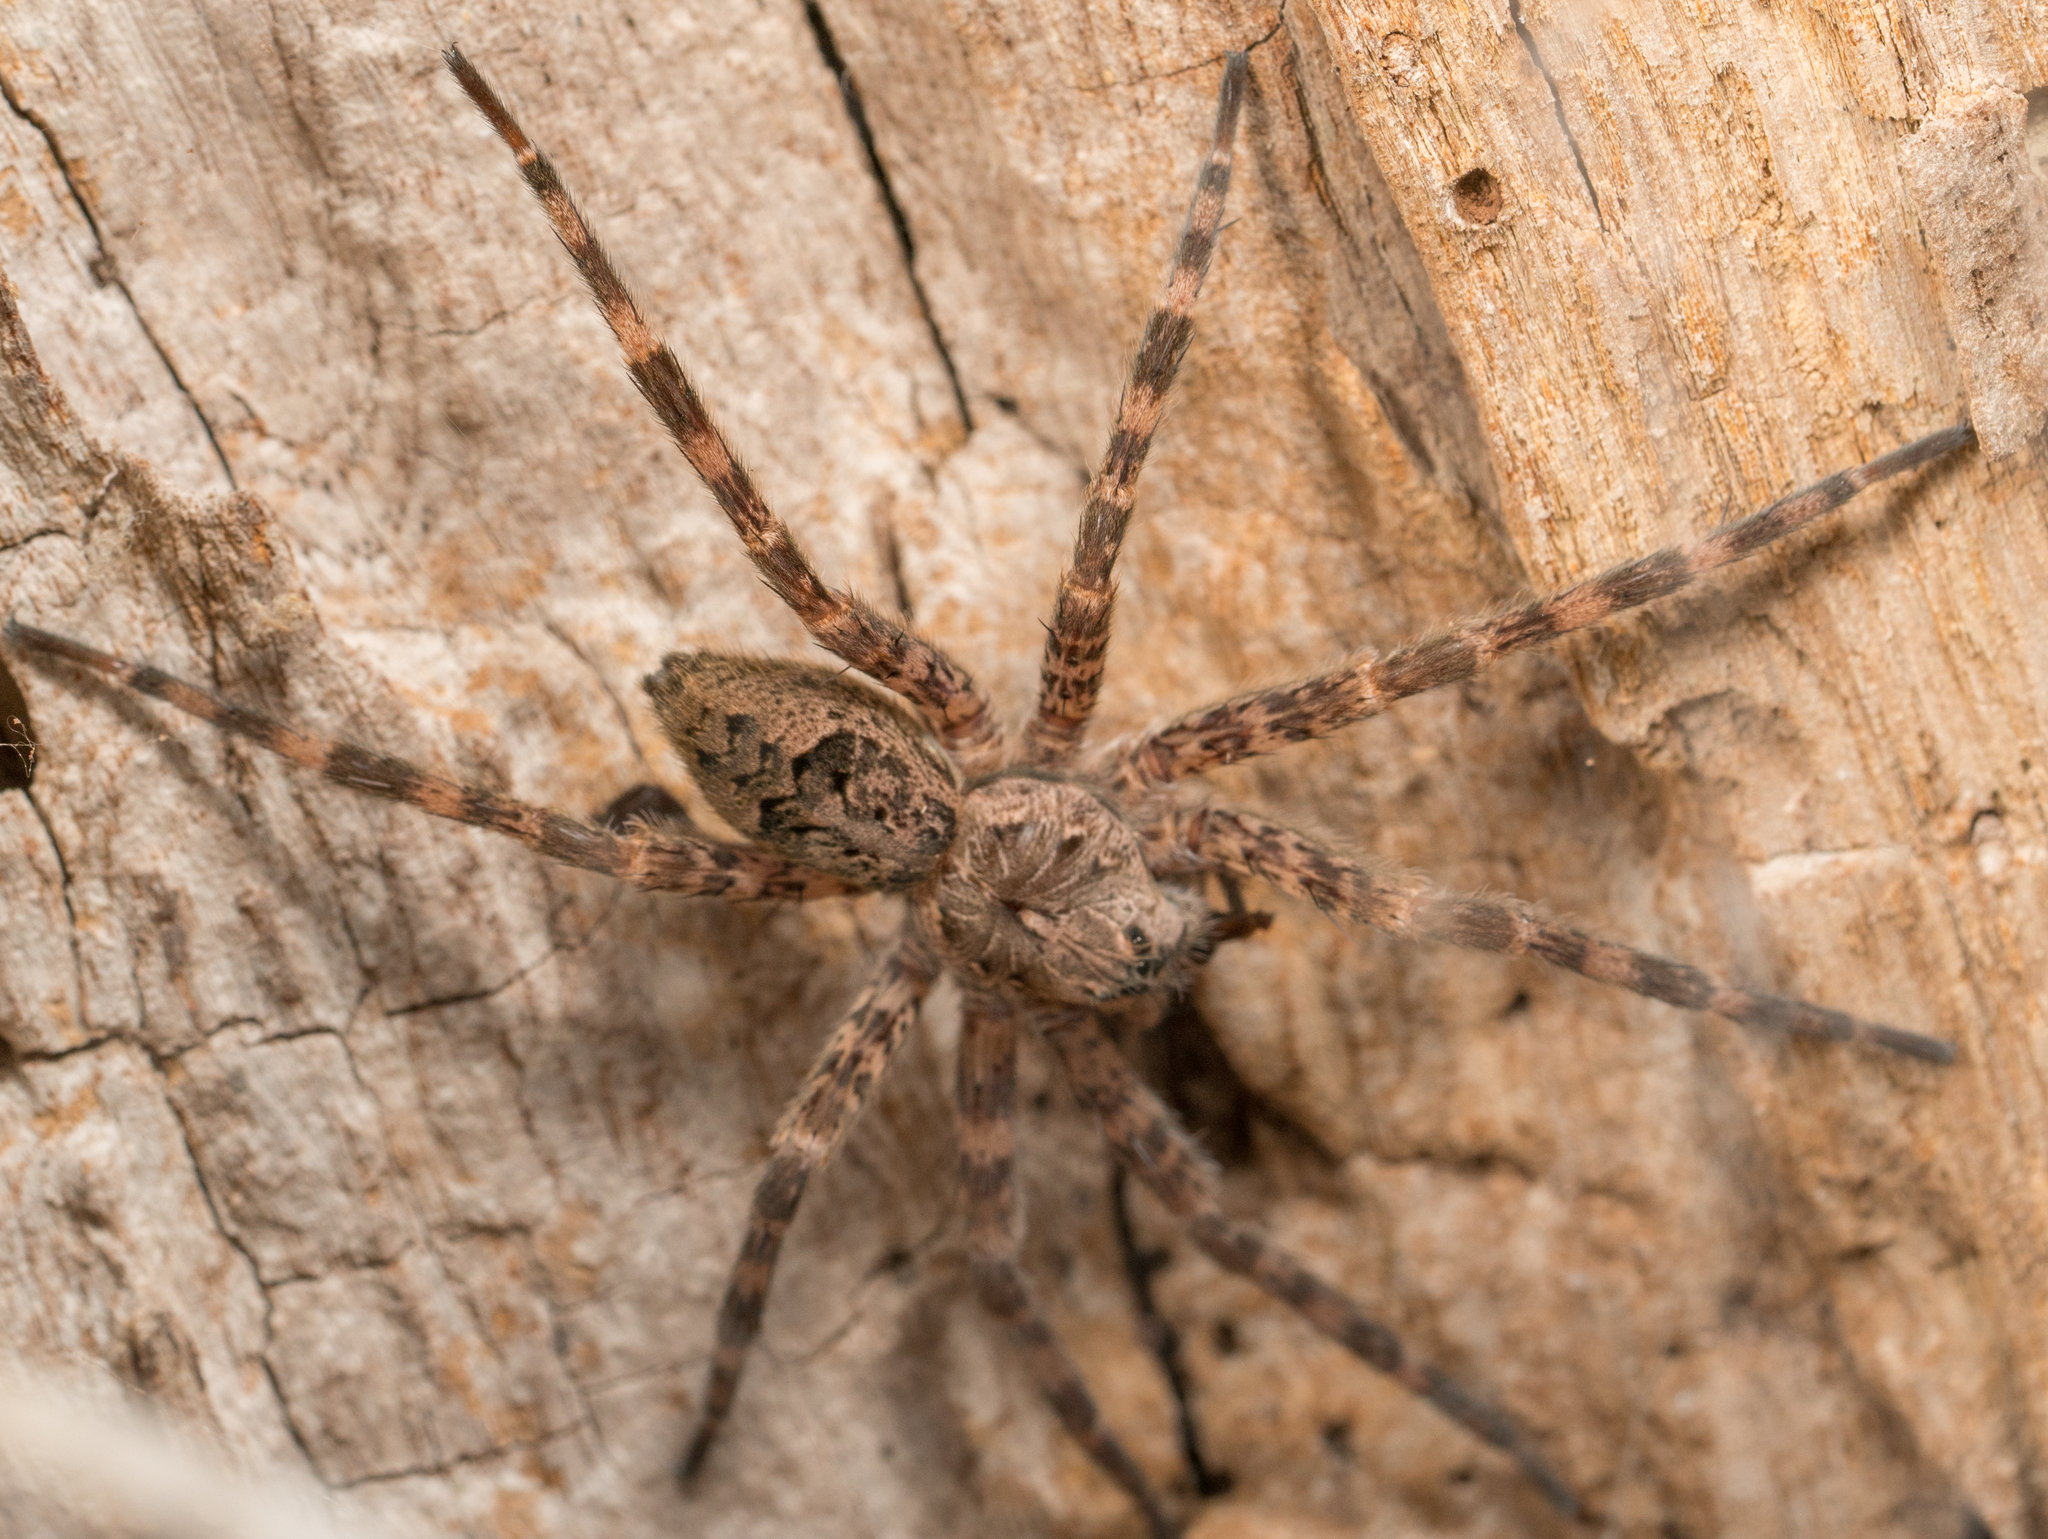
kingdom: Animalia
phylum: Arthropoda
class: Arachnida
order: Araneae
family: Pisauridae
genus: Dolomedes
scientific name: Dolomedes tenebrosus
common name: Dark fishing spider
